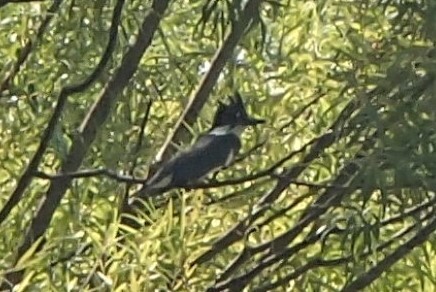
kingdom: Animalia
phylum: Chordata
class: Aves
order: Coraciiformes
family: Alcedinidae
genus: Megaceryle
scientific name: Megaceryle alcyon
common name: Belted kingfisher
